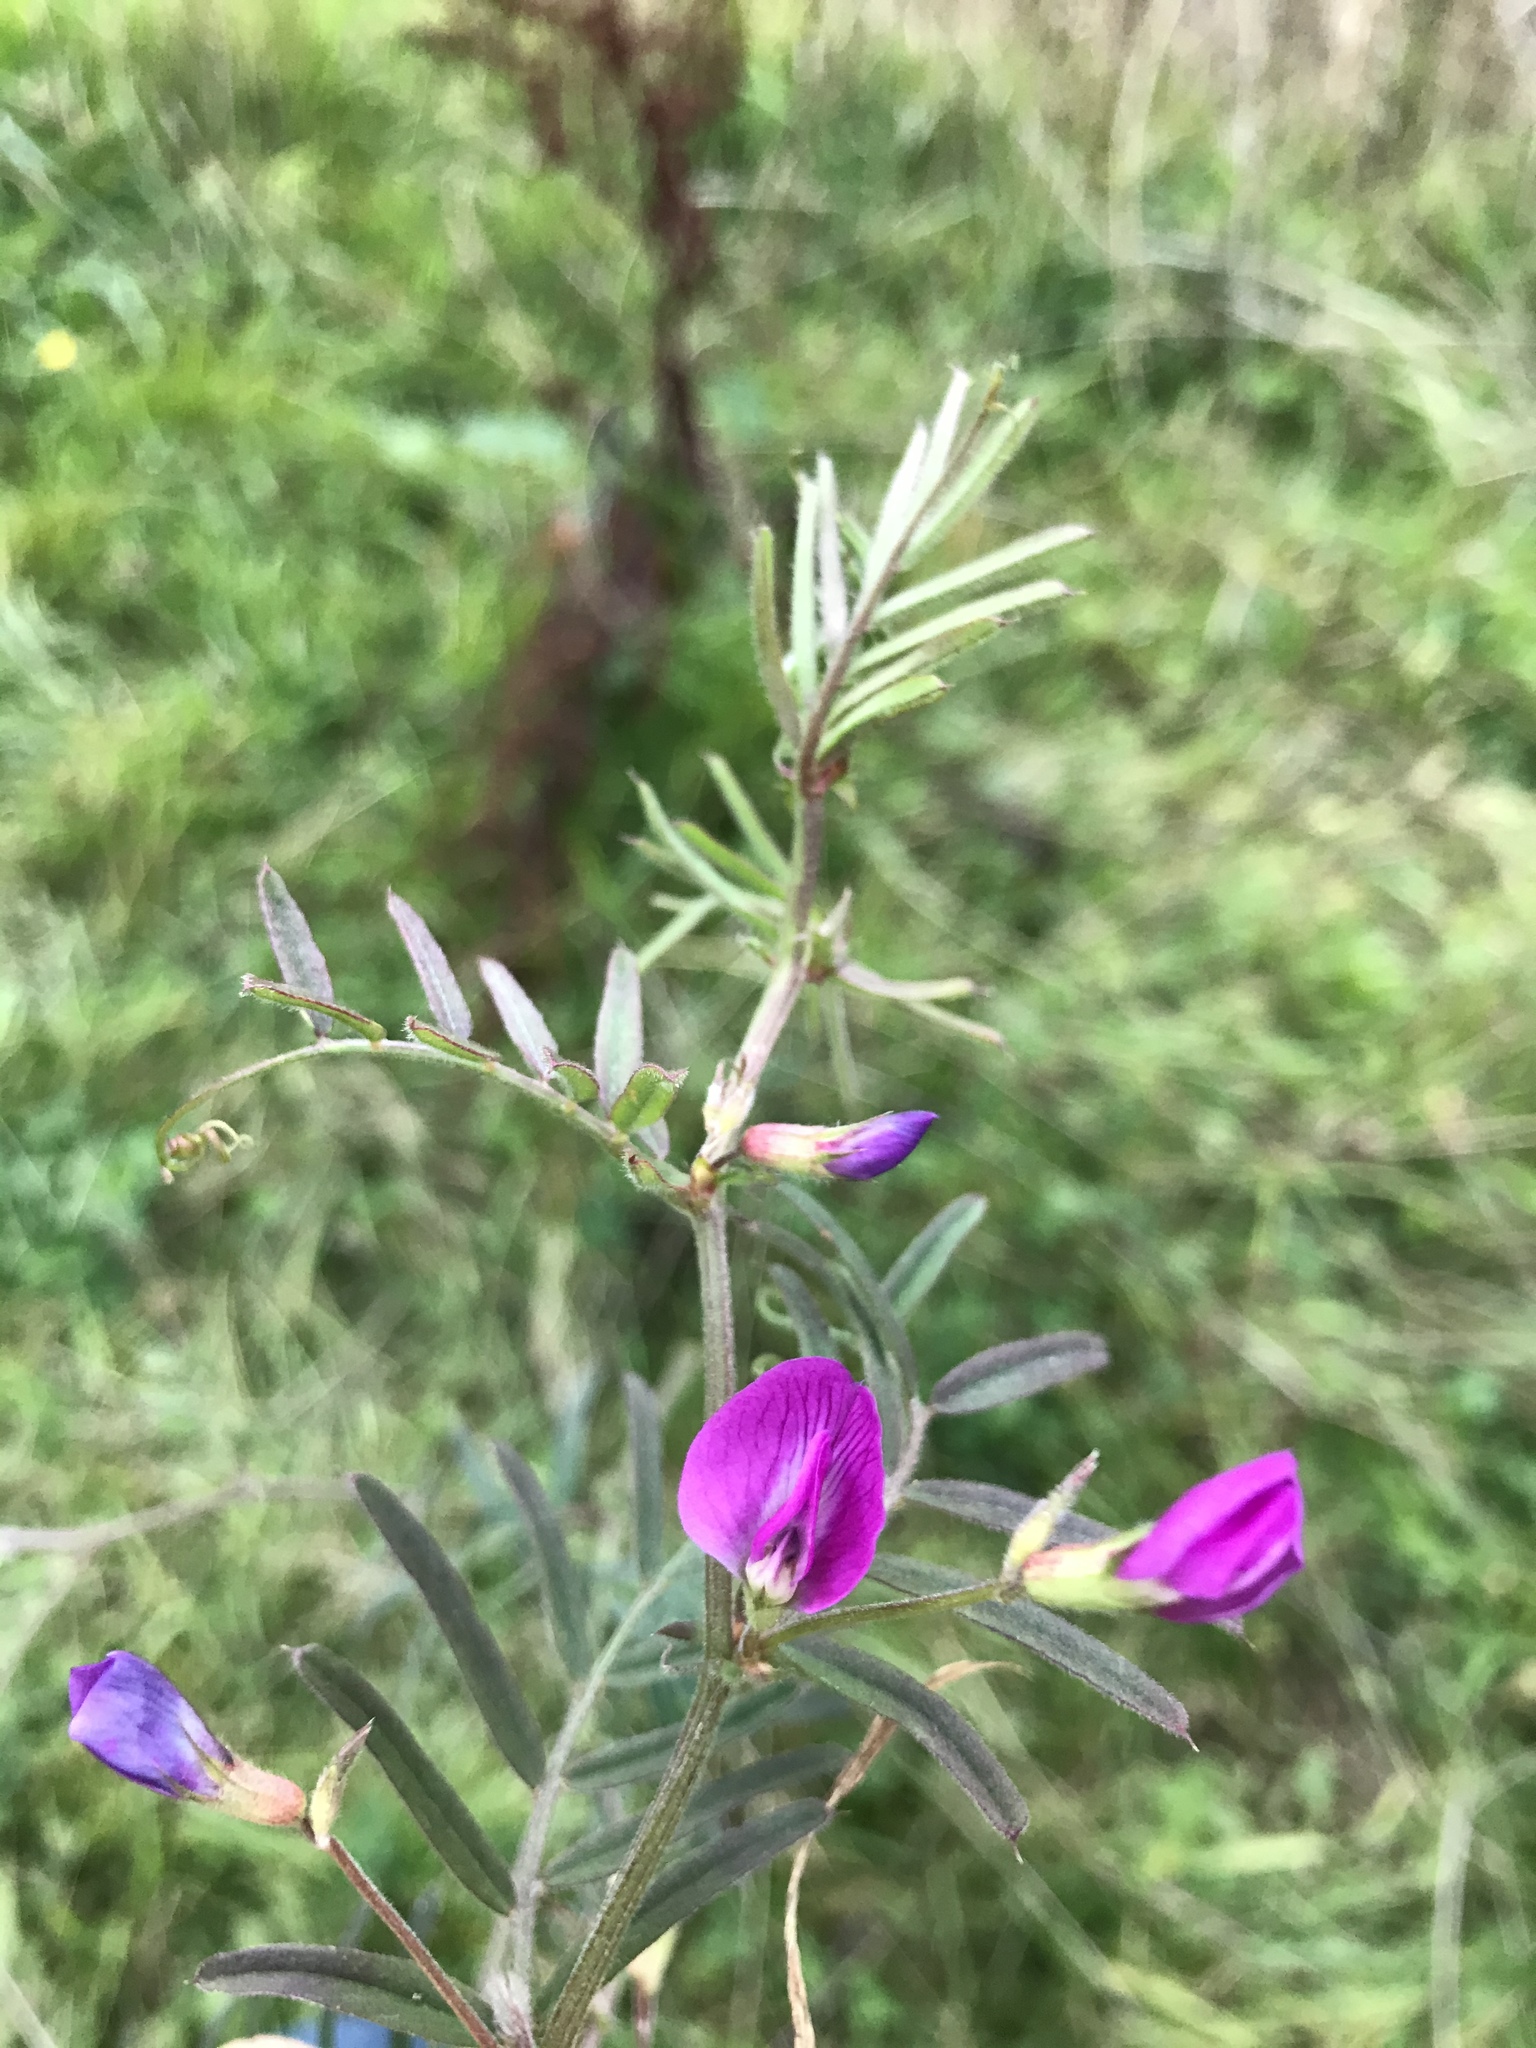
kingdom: Plantae
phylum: Tracheophyta
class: Magnoliopsida
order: Fabales
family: Fabaceae
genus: Vicia
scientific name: Vicia sativa
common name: Garden vetch
